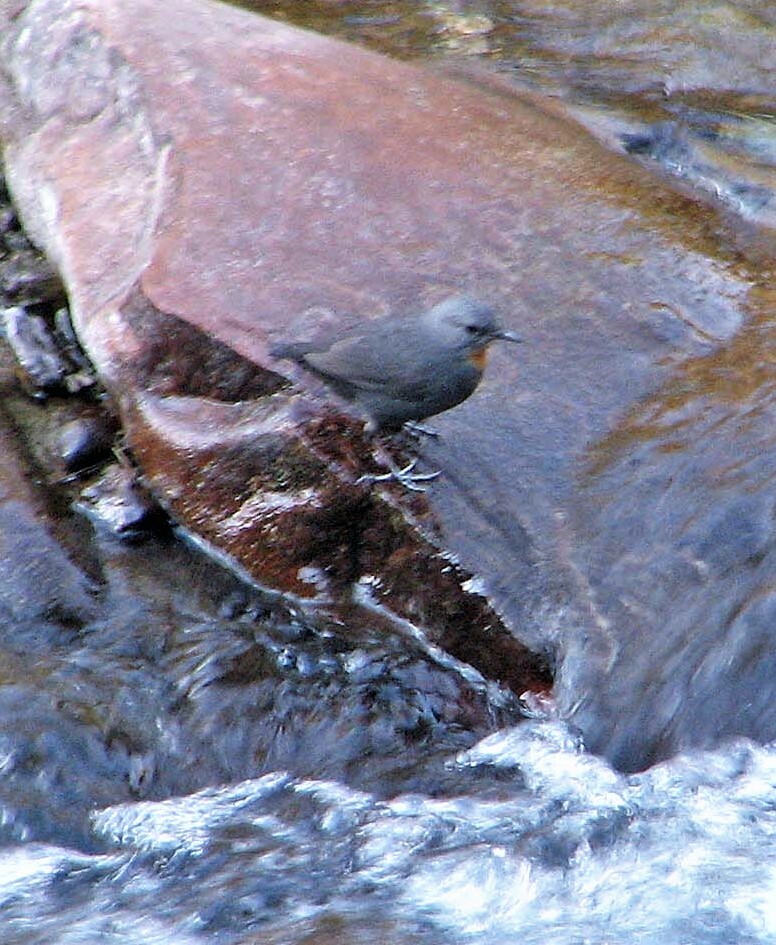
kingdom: Animalia
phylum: Chordata
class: Aves
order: Passeriformes
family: Cinclidae
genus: Cinclus
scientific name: Cinclus schulzii
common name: Rufous-throated dipper
